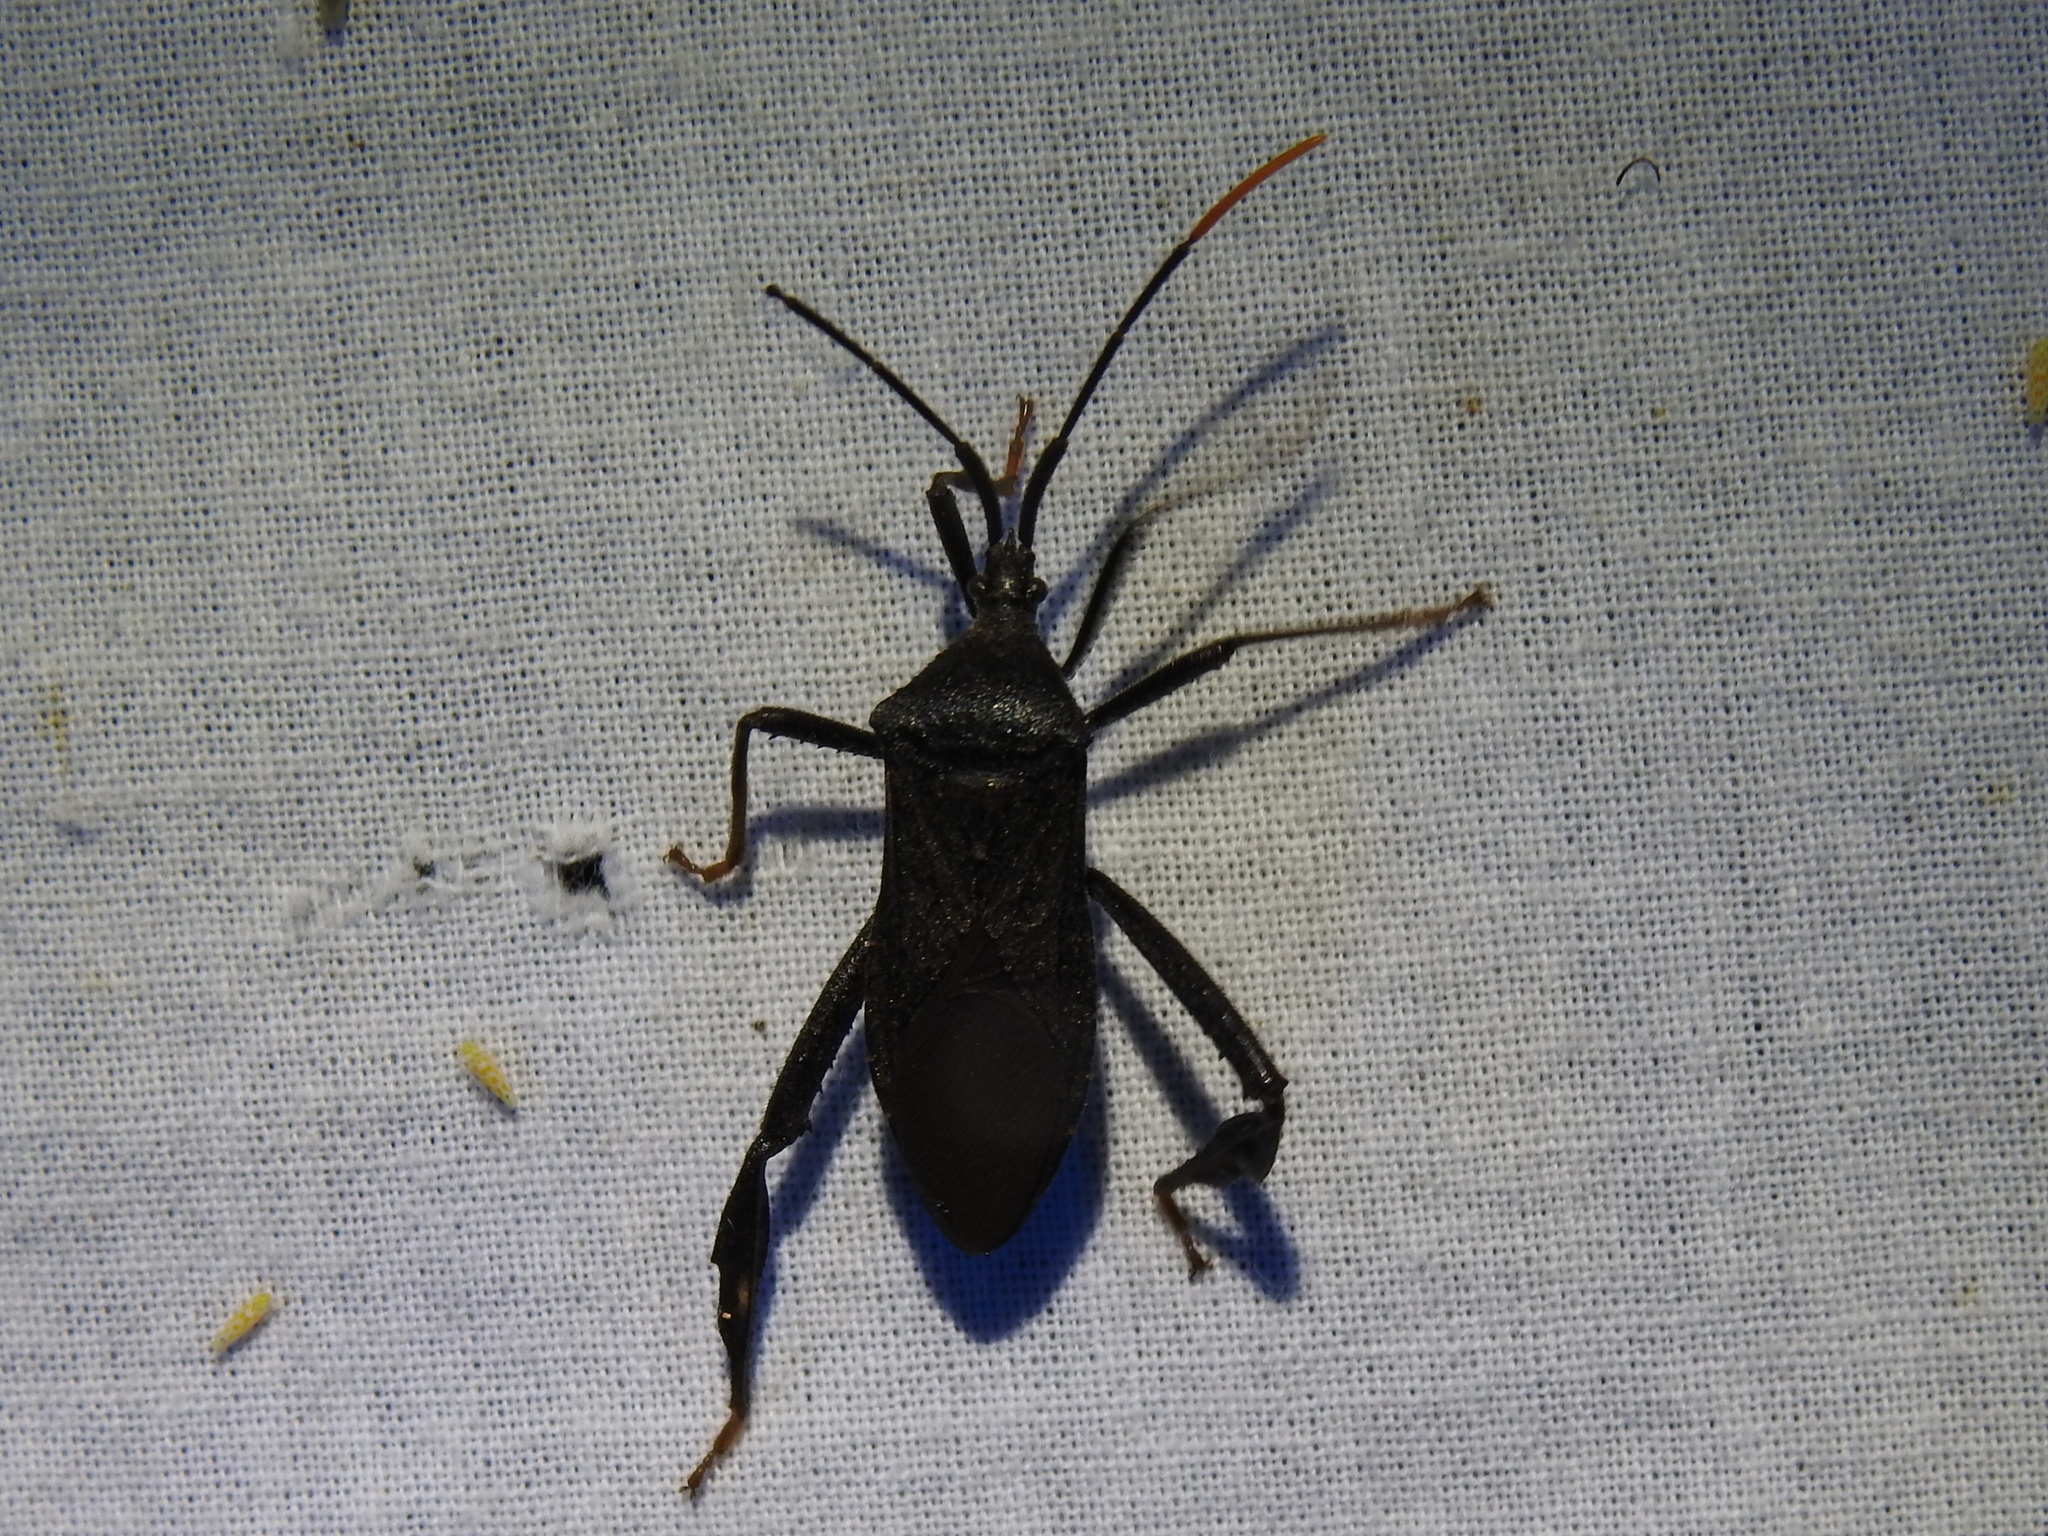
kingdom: Animalia
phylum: Arthropoda
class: Insecta
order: Hemiptera
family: Coreidae
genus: Acanthocephala
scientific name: Acanthocephala terminalis
